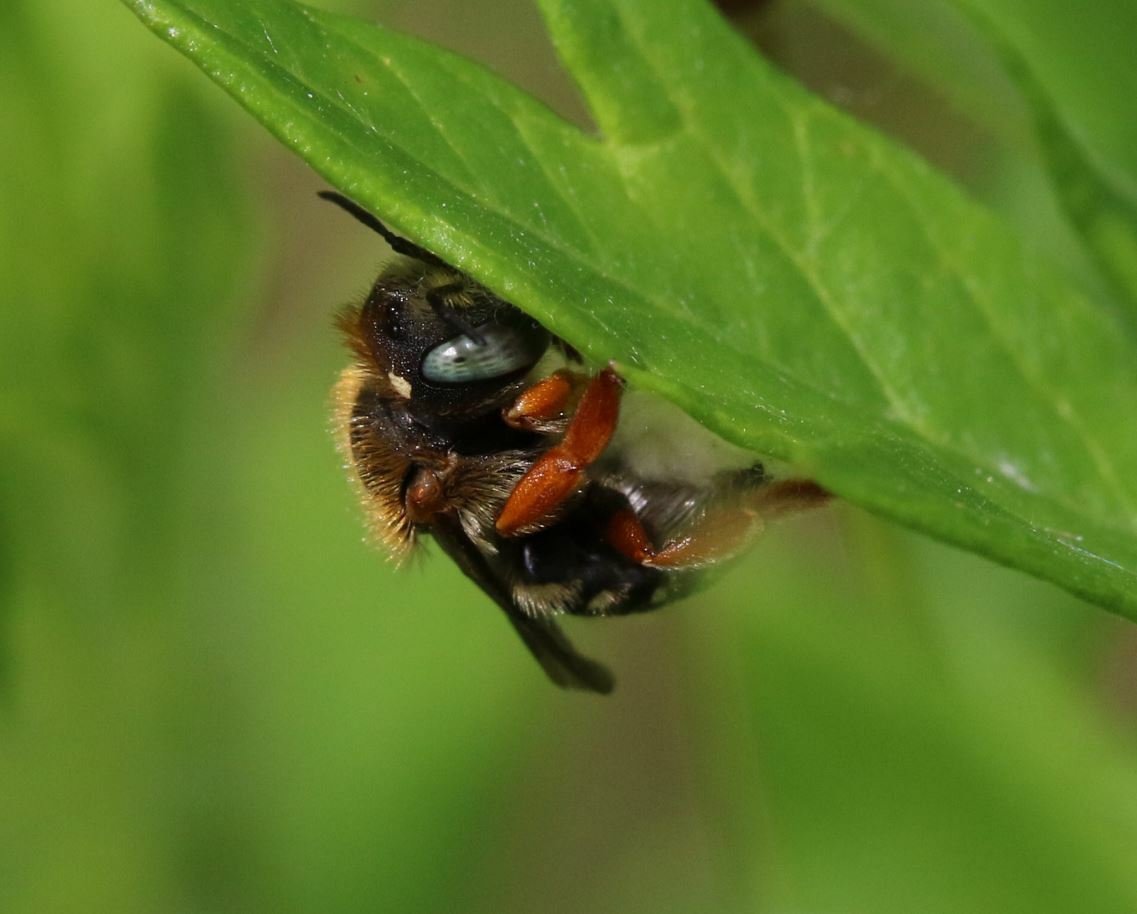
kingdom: Animalia
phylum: Arthropoda
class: Insecta
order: Hymenoptera
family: Megachilidae
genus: Anthidium
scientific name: Anthidium punctatum
